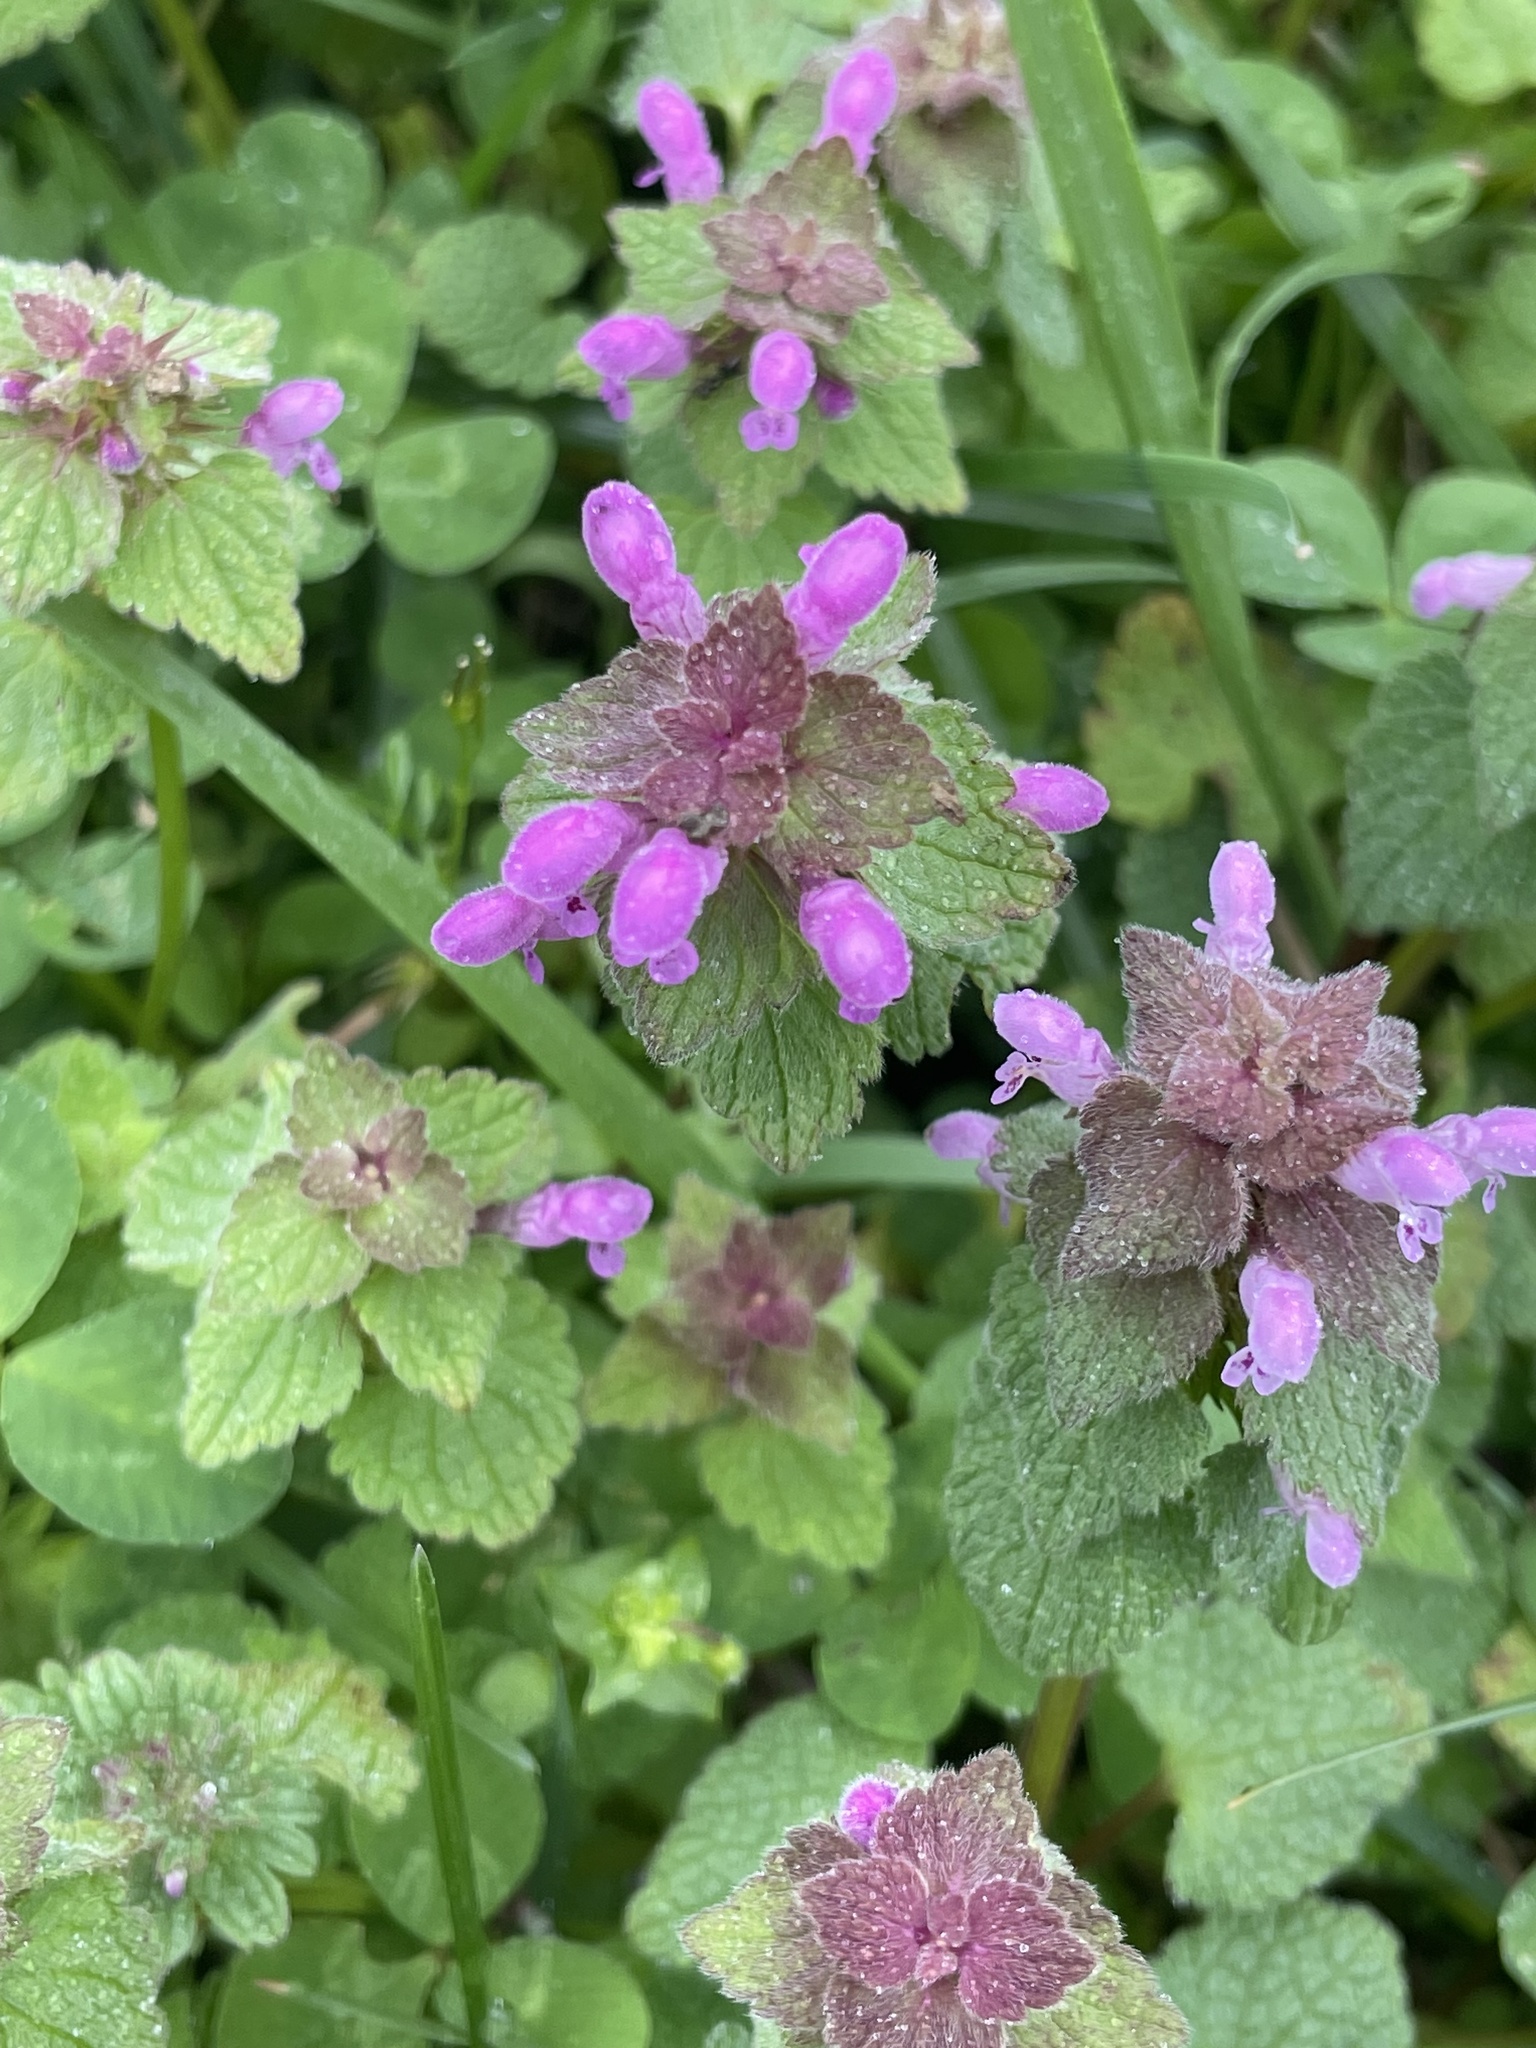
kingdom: Plantae
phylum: Tracheophyta
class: Magnoliopsida
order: Lamiales
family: Lamiaceae
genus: Lamium
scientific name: Lamium purpureum
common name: Red dead-nettle
